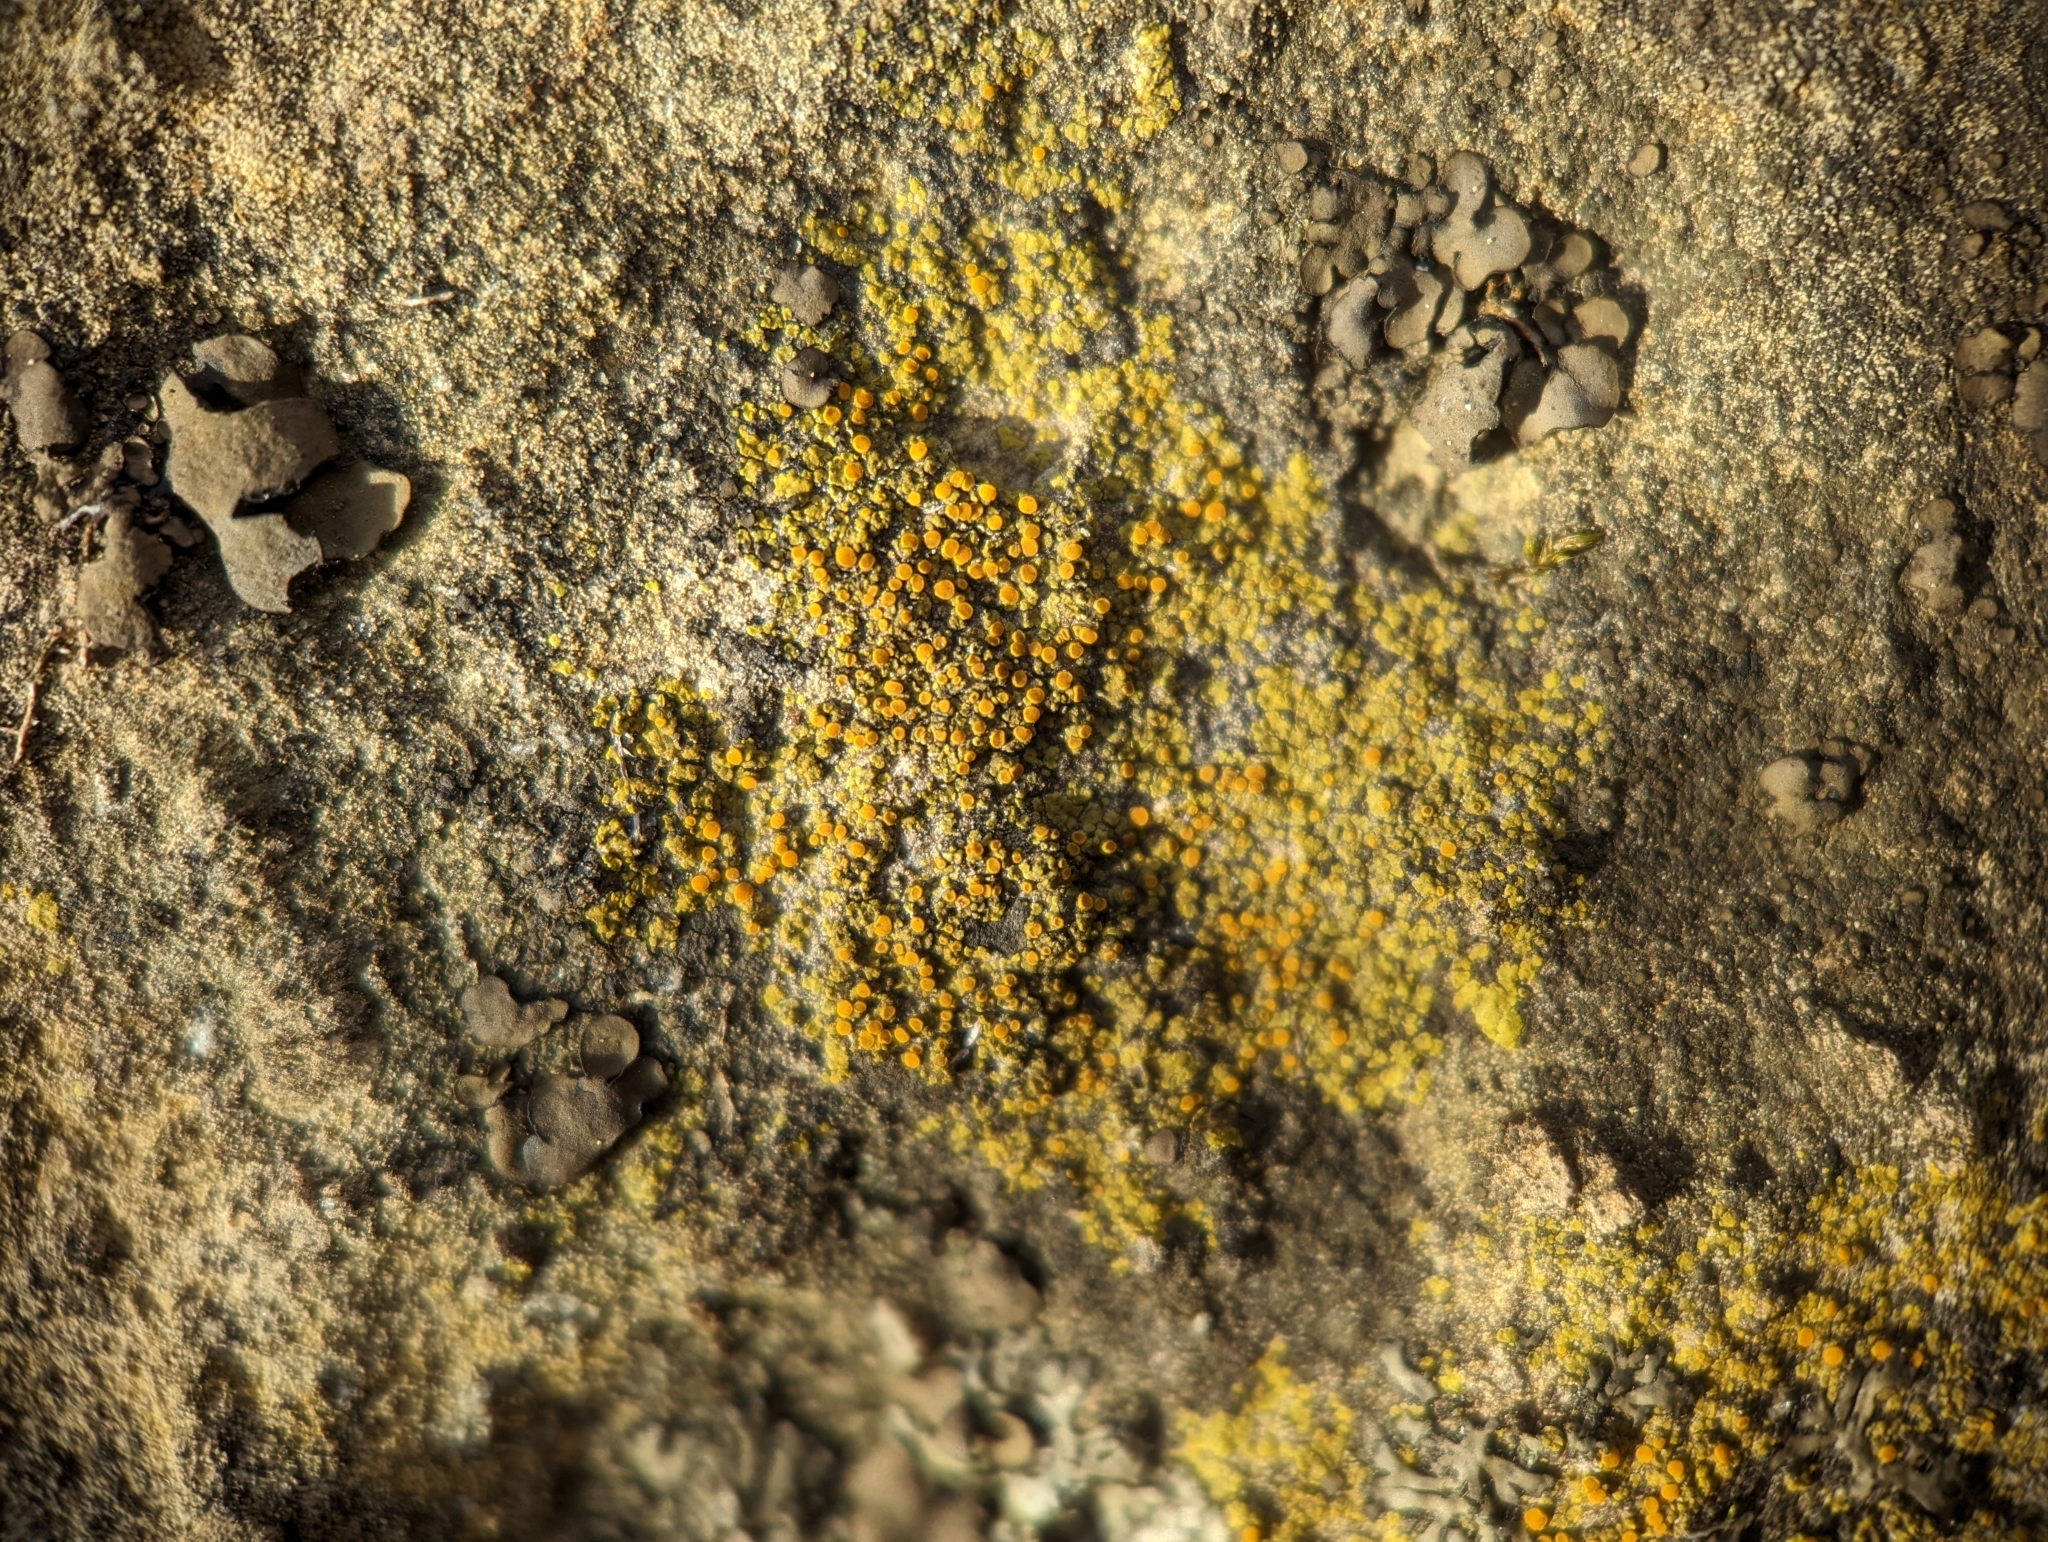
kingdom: Fungi
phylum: Ascomycota
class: Lecanoromycetes
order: Teloschistales
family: Teloschistaceae
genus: Gyalolechia
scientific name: Gyalolechia flavovirescens
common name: Sulphur firedot
